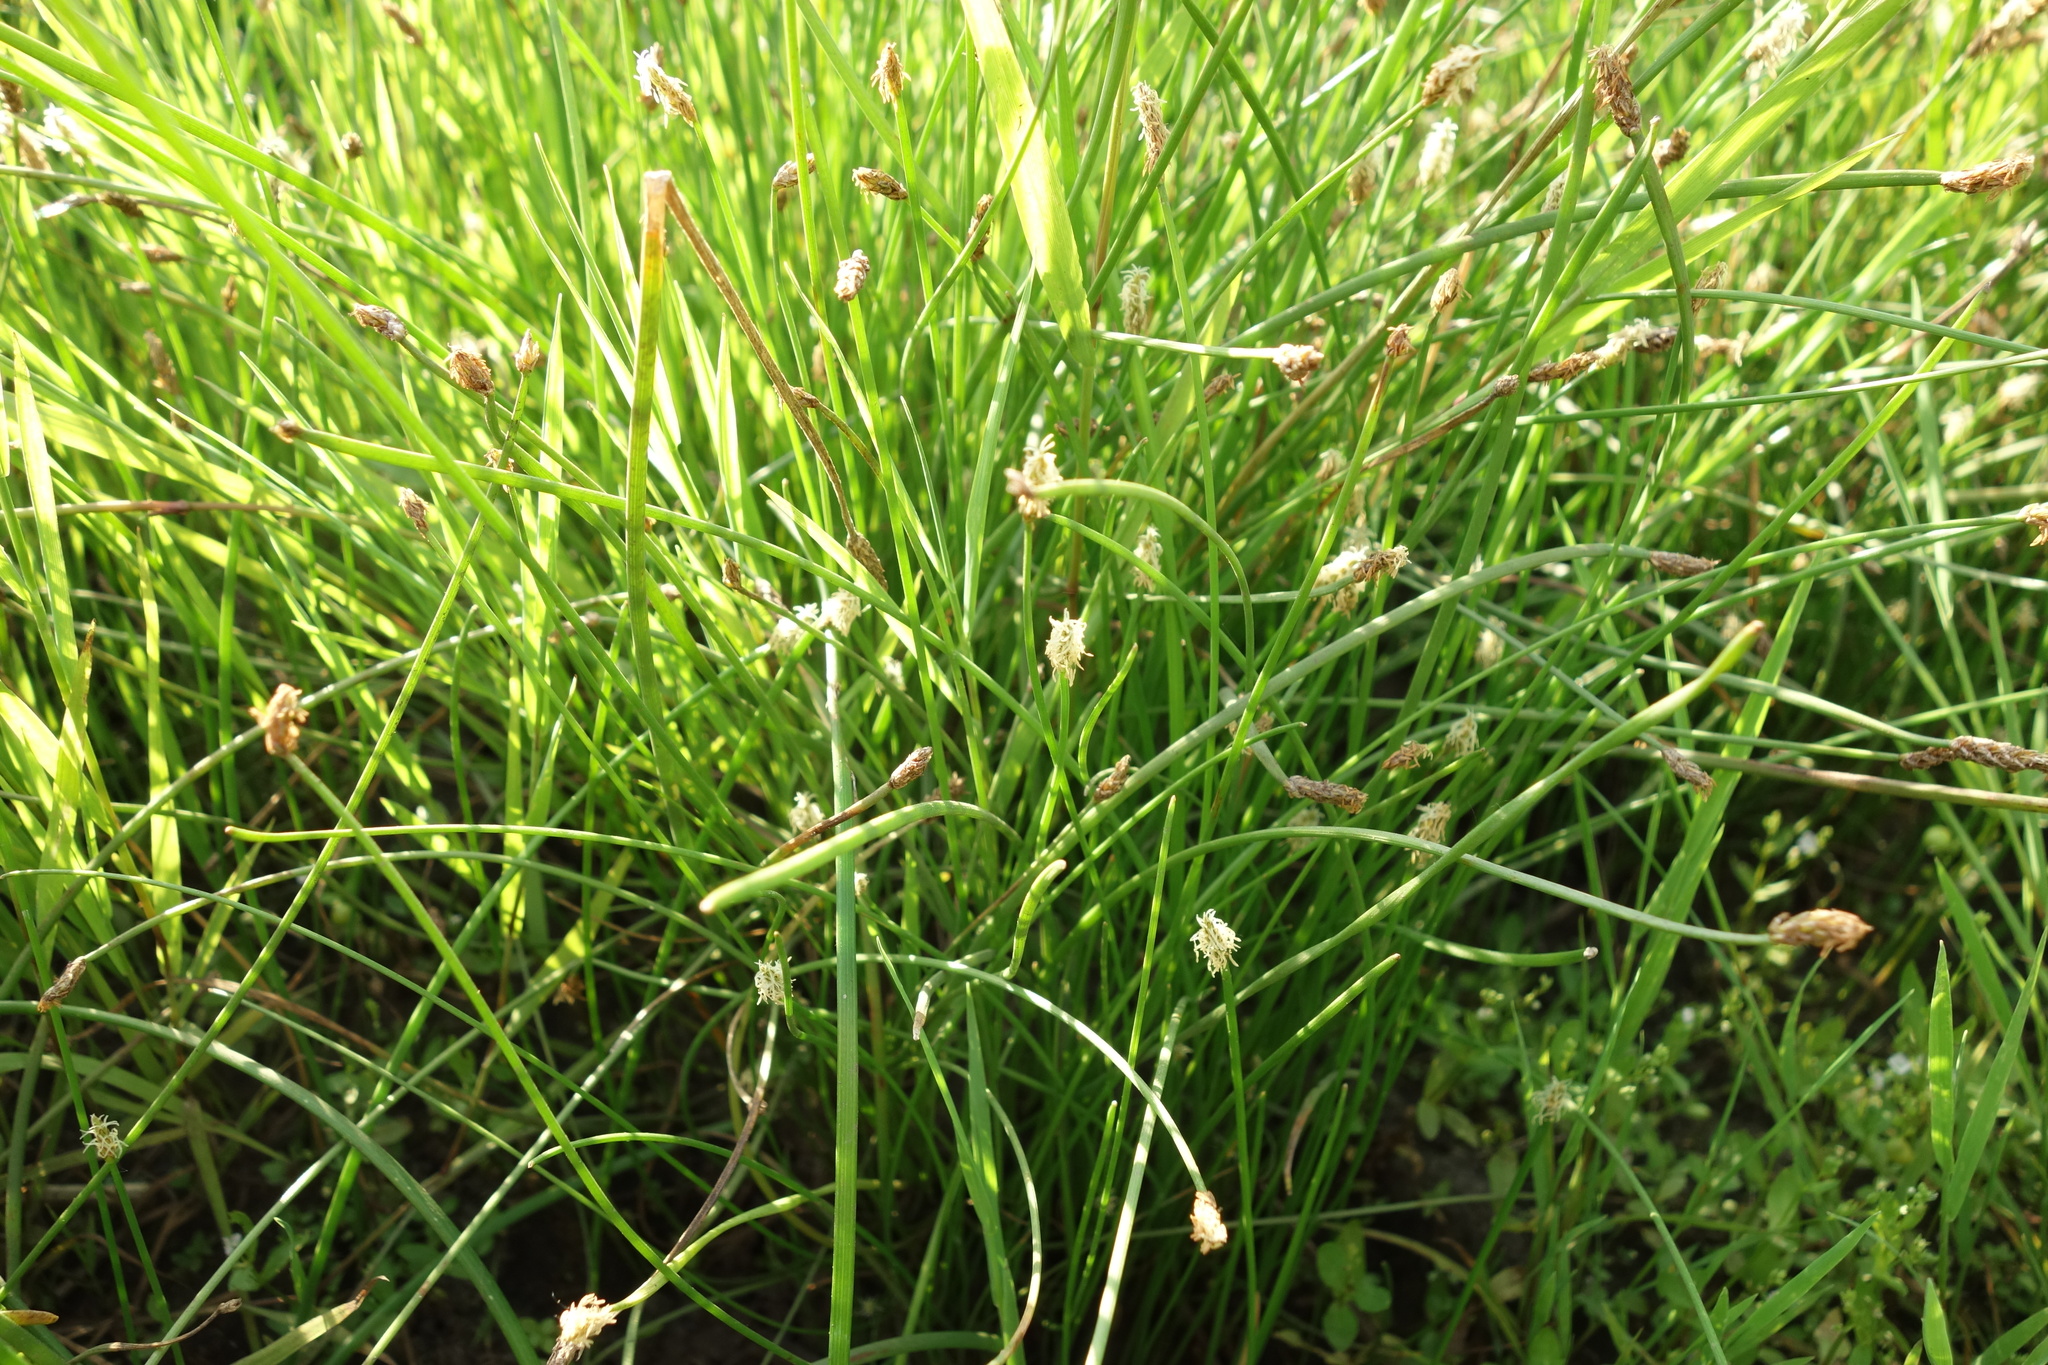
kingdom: Plantae
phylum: Tracheophyta
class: Liliopsida
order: Poales
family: Cyperaceae
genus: Eleocharis
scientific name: Eleocharis palustris
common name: Common spike-rush
